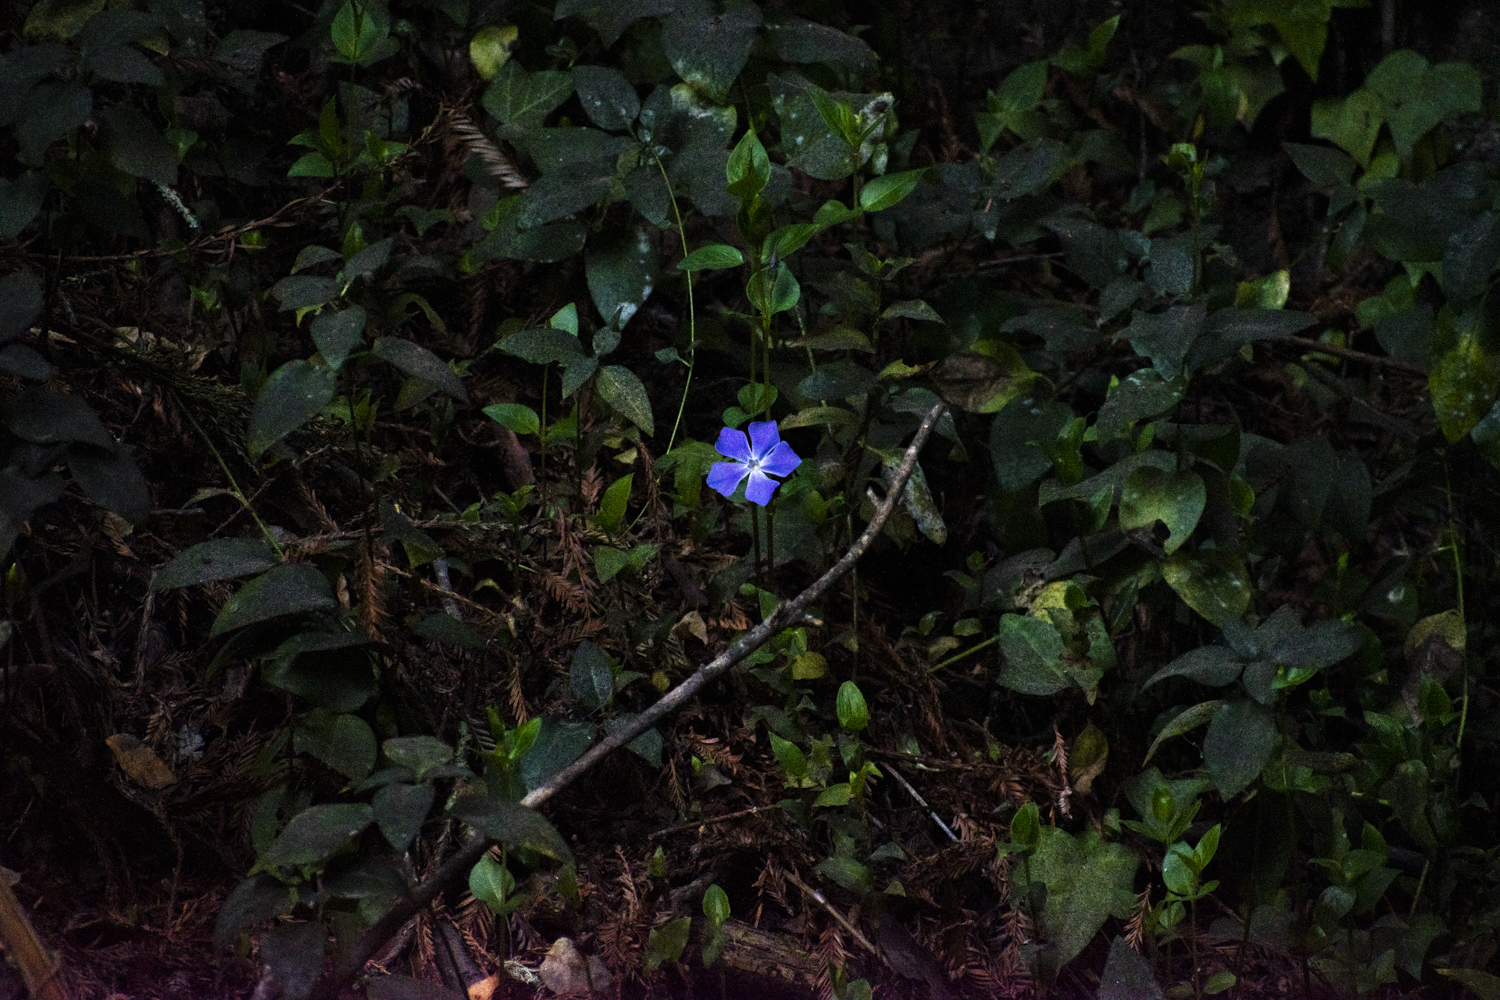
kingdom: Plantae
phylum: Tracheophyta
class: Magnoliopsida
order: Gentianales
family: Apocynaceae
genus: Vinca
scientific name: Vinca major
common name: Greater periwinkle
